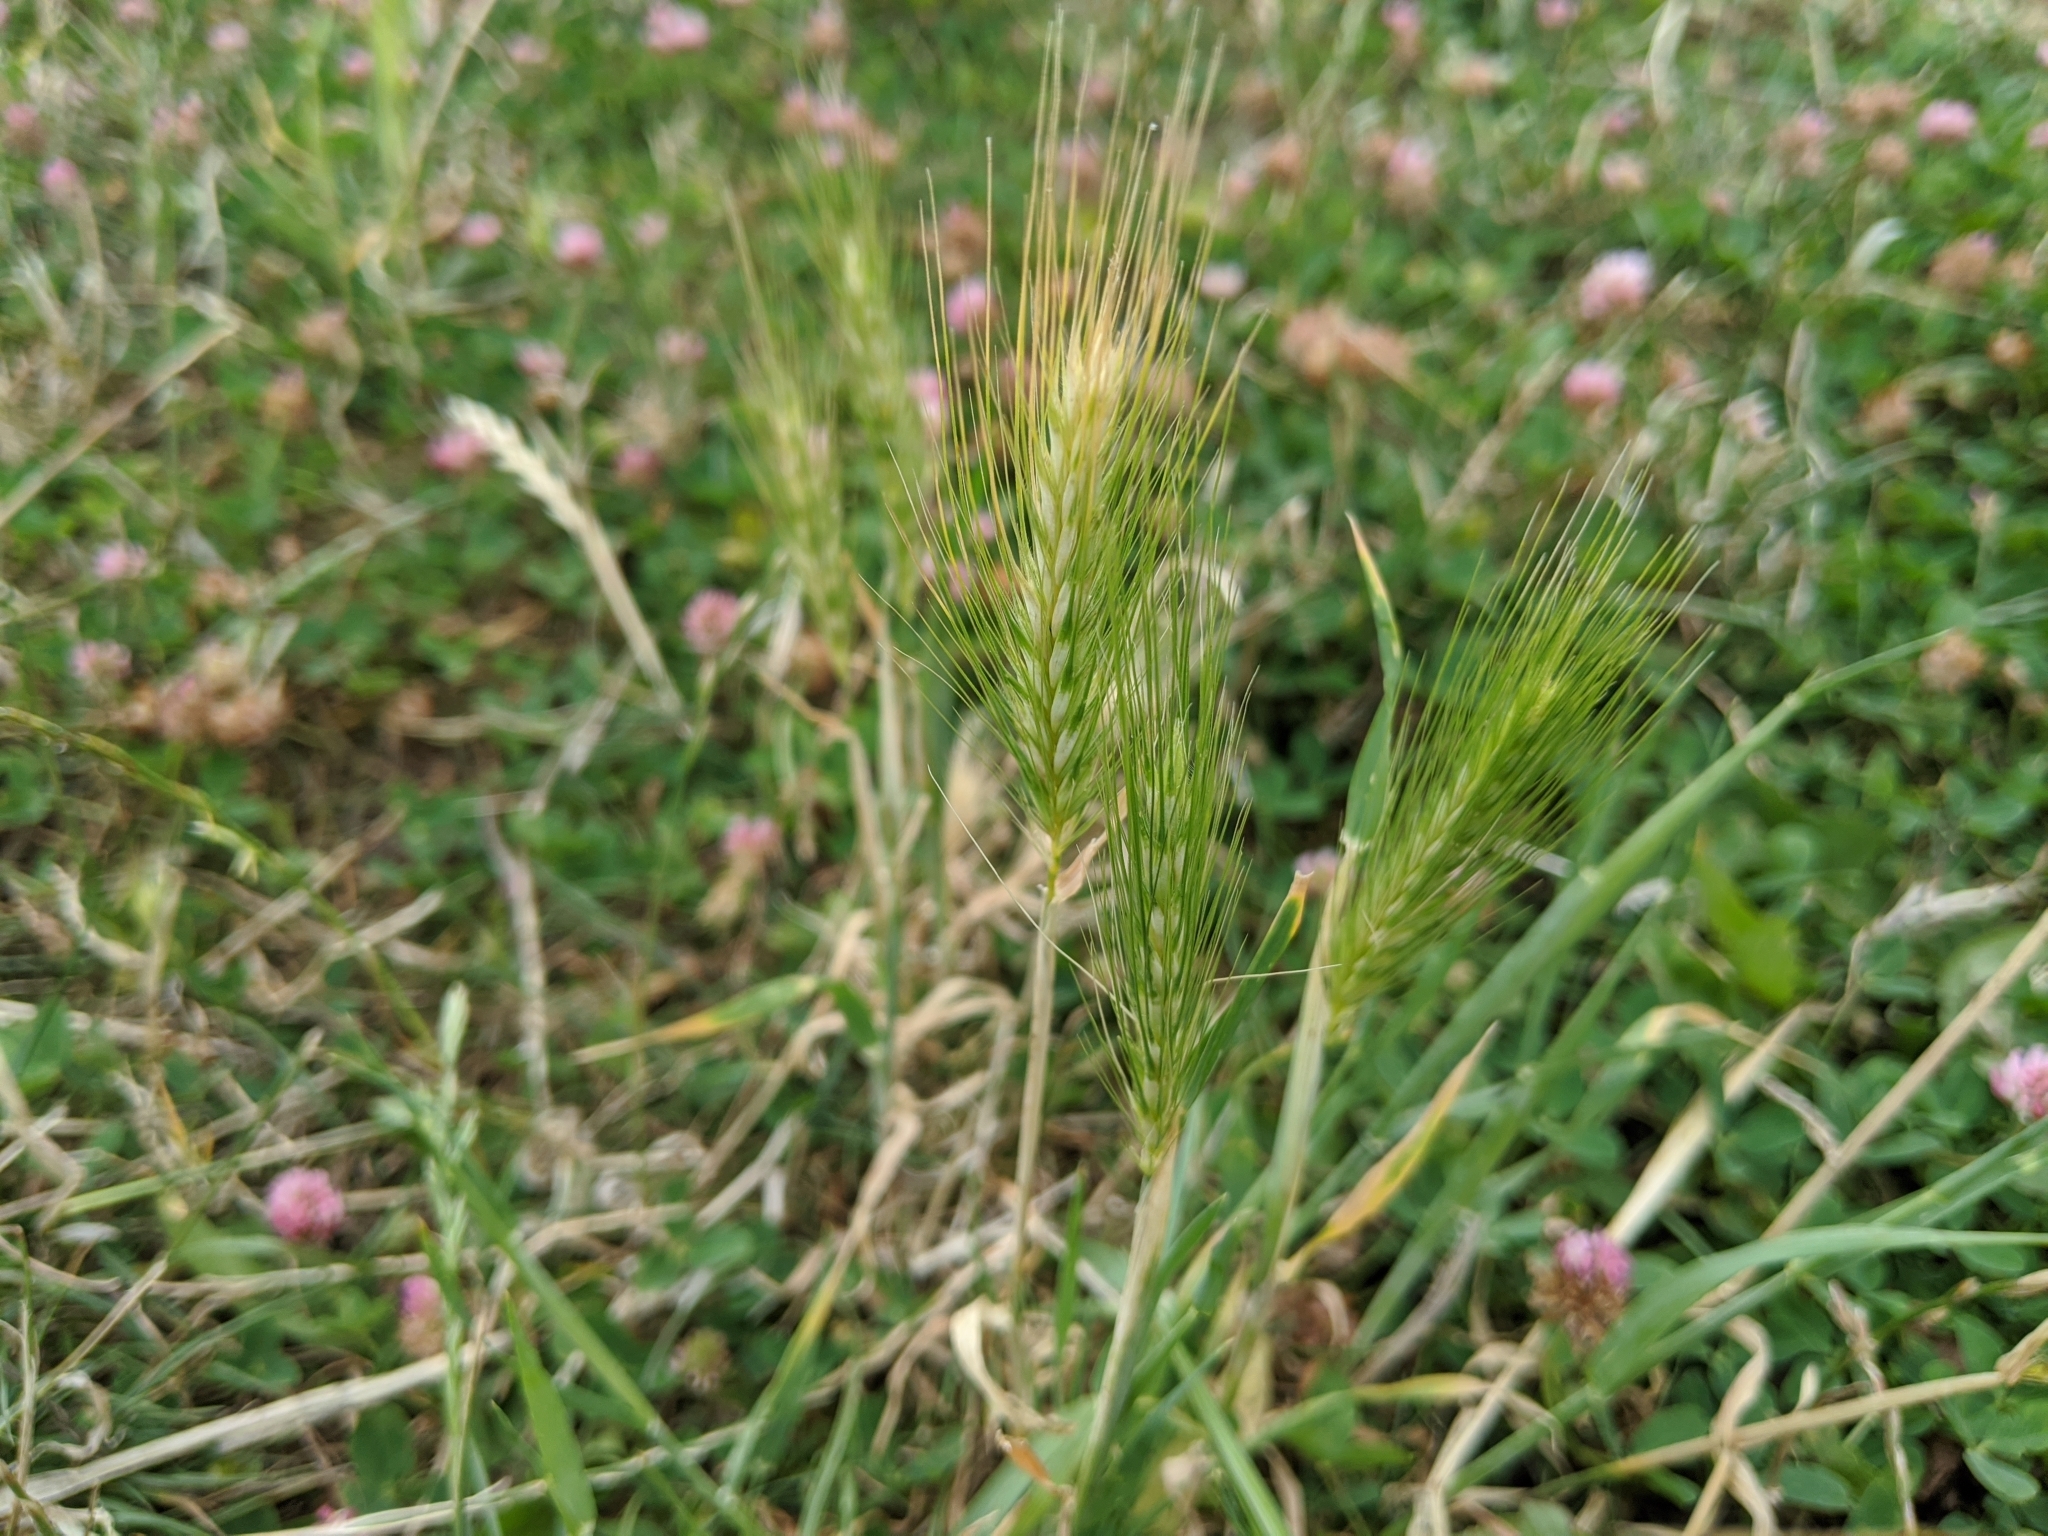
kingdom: Plantae
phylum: Tracheophyta
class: Liliopsida
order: Poales
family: Poaceae
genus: Hordeum
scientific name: Hordeum murinum
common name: Wall barley
